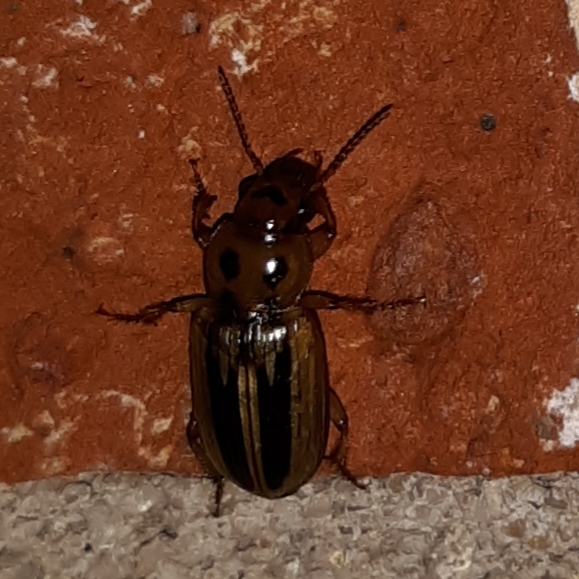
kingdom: Animalia
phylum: Arthropoda
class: Insecta
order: Coleoptera
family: Carabidae
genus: Stenolophus
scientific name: Stenolophus lineola
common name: Lined stenolophus
